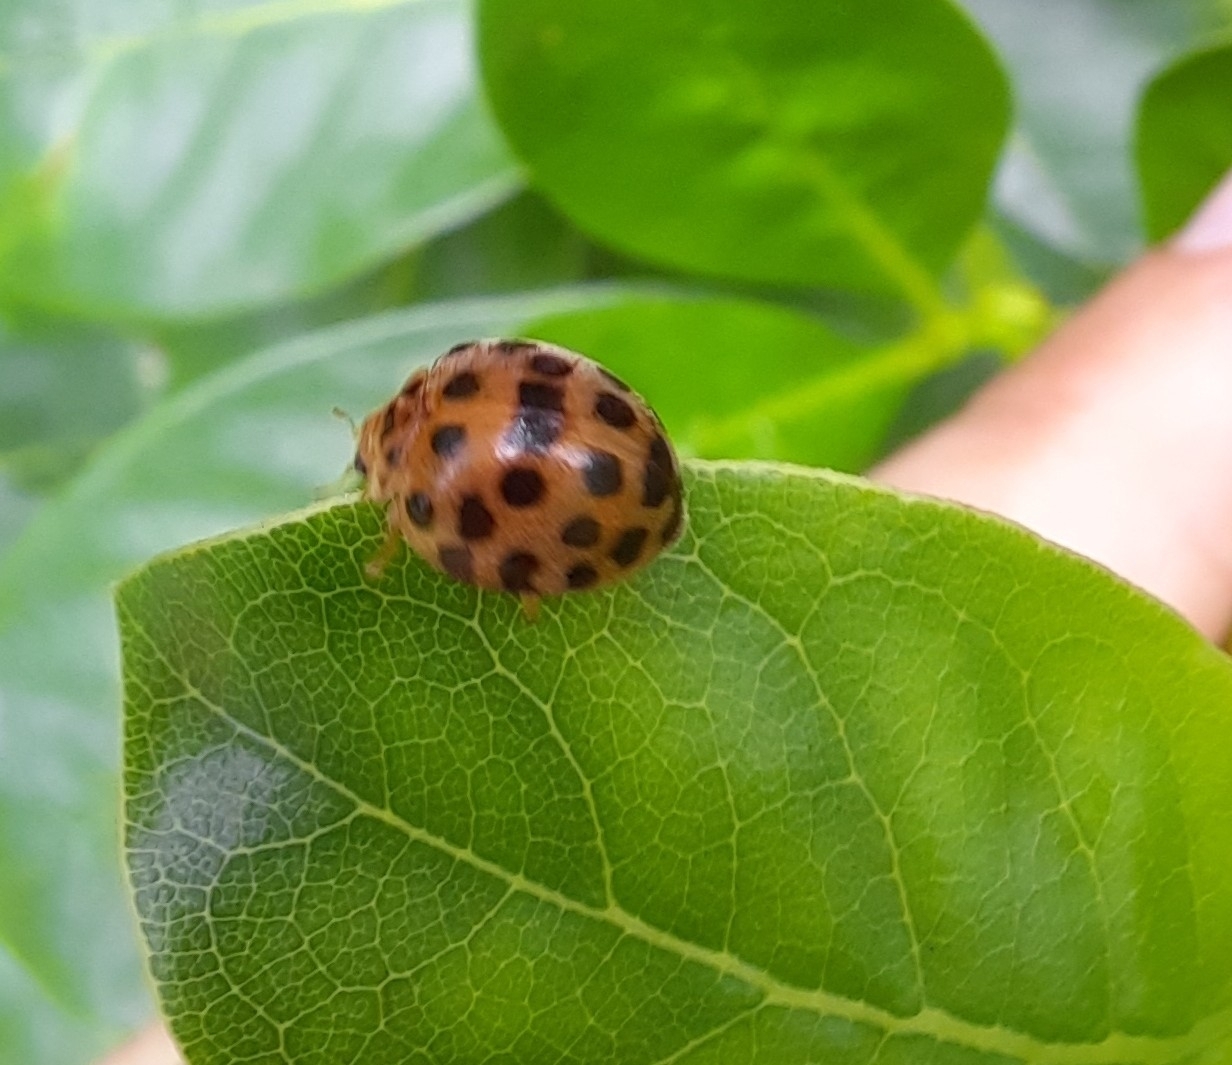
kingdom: Animalia
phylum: Arthropoda
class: Insecta
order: Coleoptera
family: Coccinellidae
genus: Henosepilachna
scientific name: Henosepilachna vigintioctopunctata
